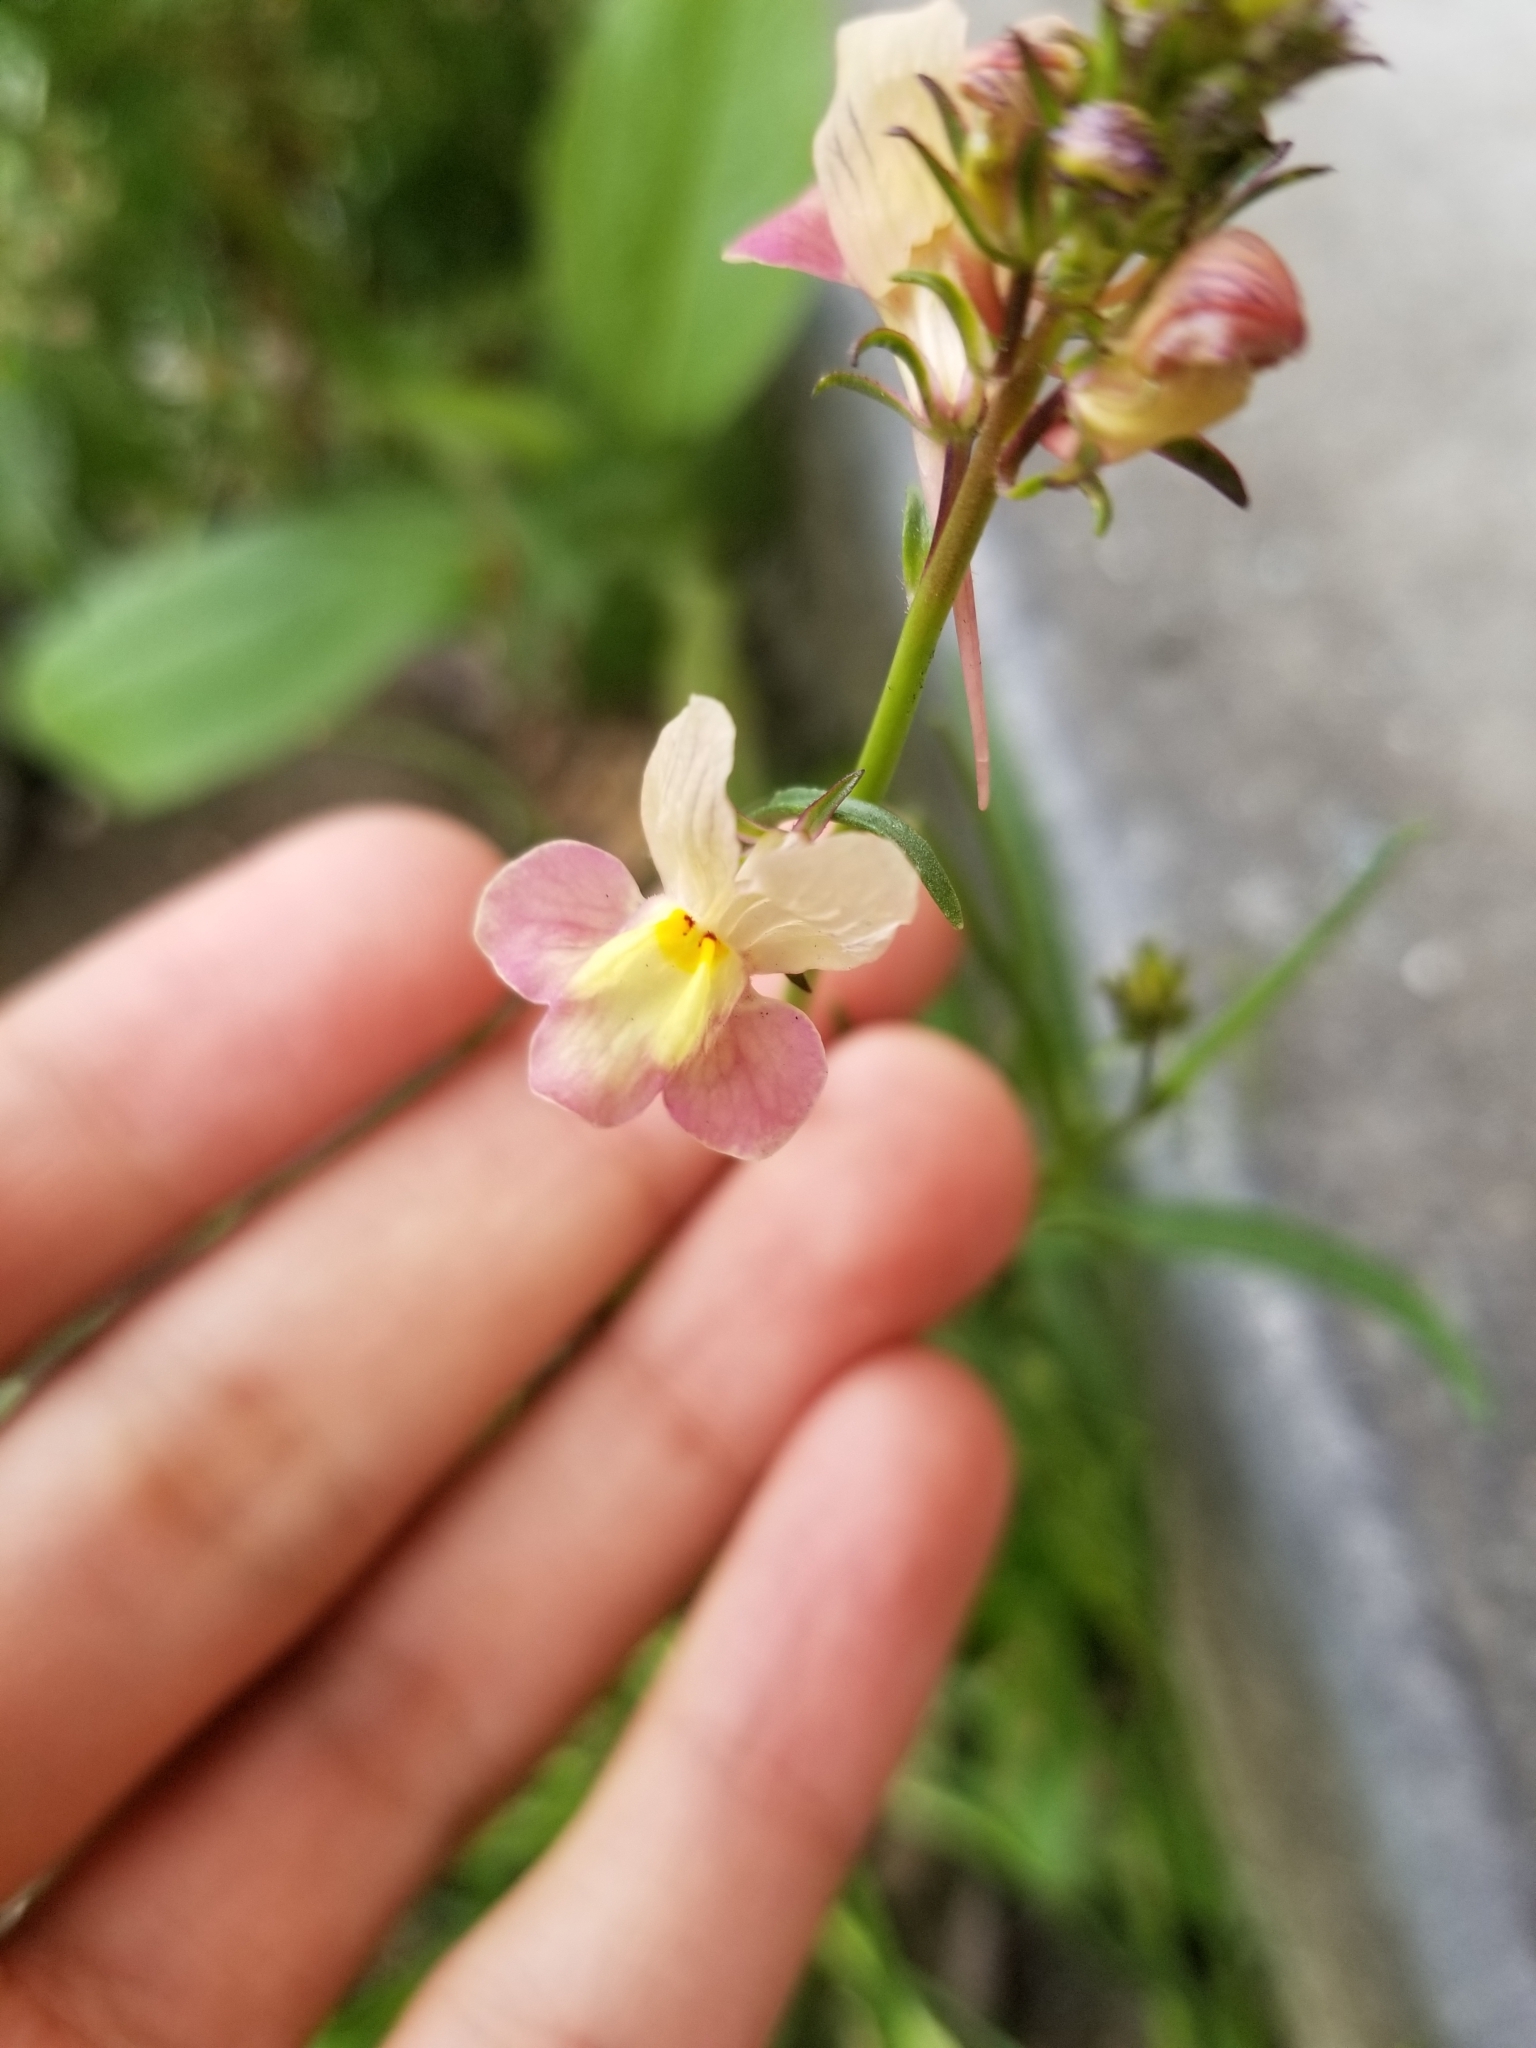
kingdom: Plantae
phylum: Tracheophyta
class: Magnoliopsida
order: Lamiales
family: Plantaginaceae
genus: Linaria
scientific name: Linaria maroccana
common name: Moroccan toadflax
